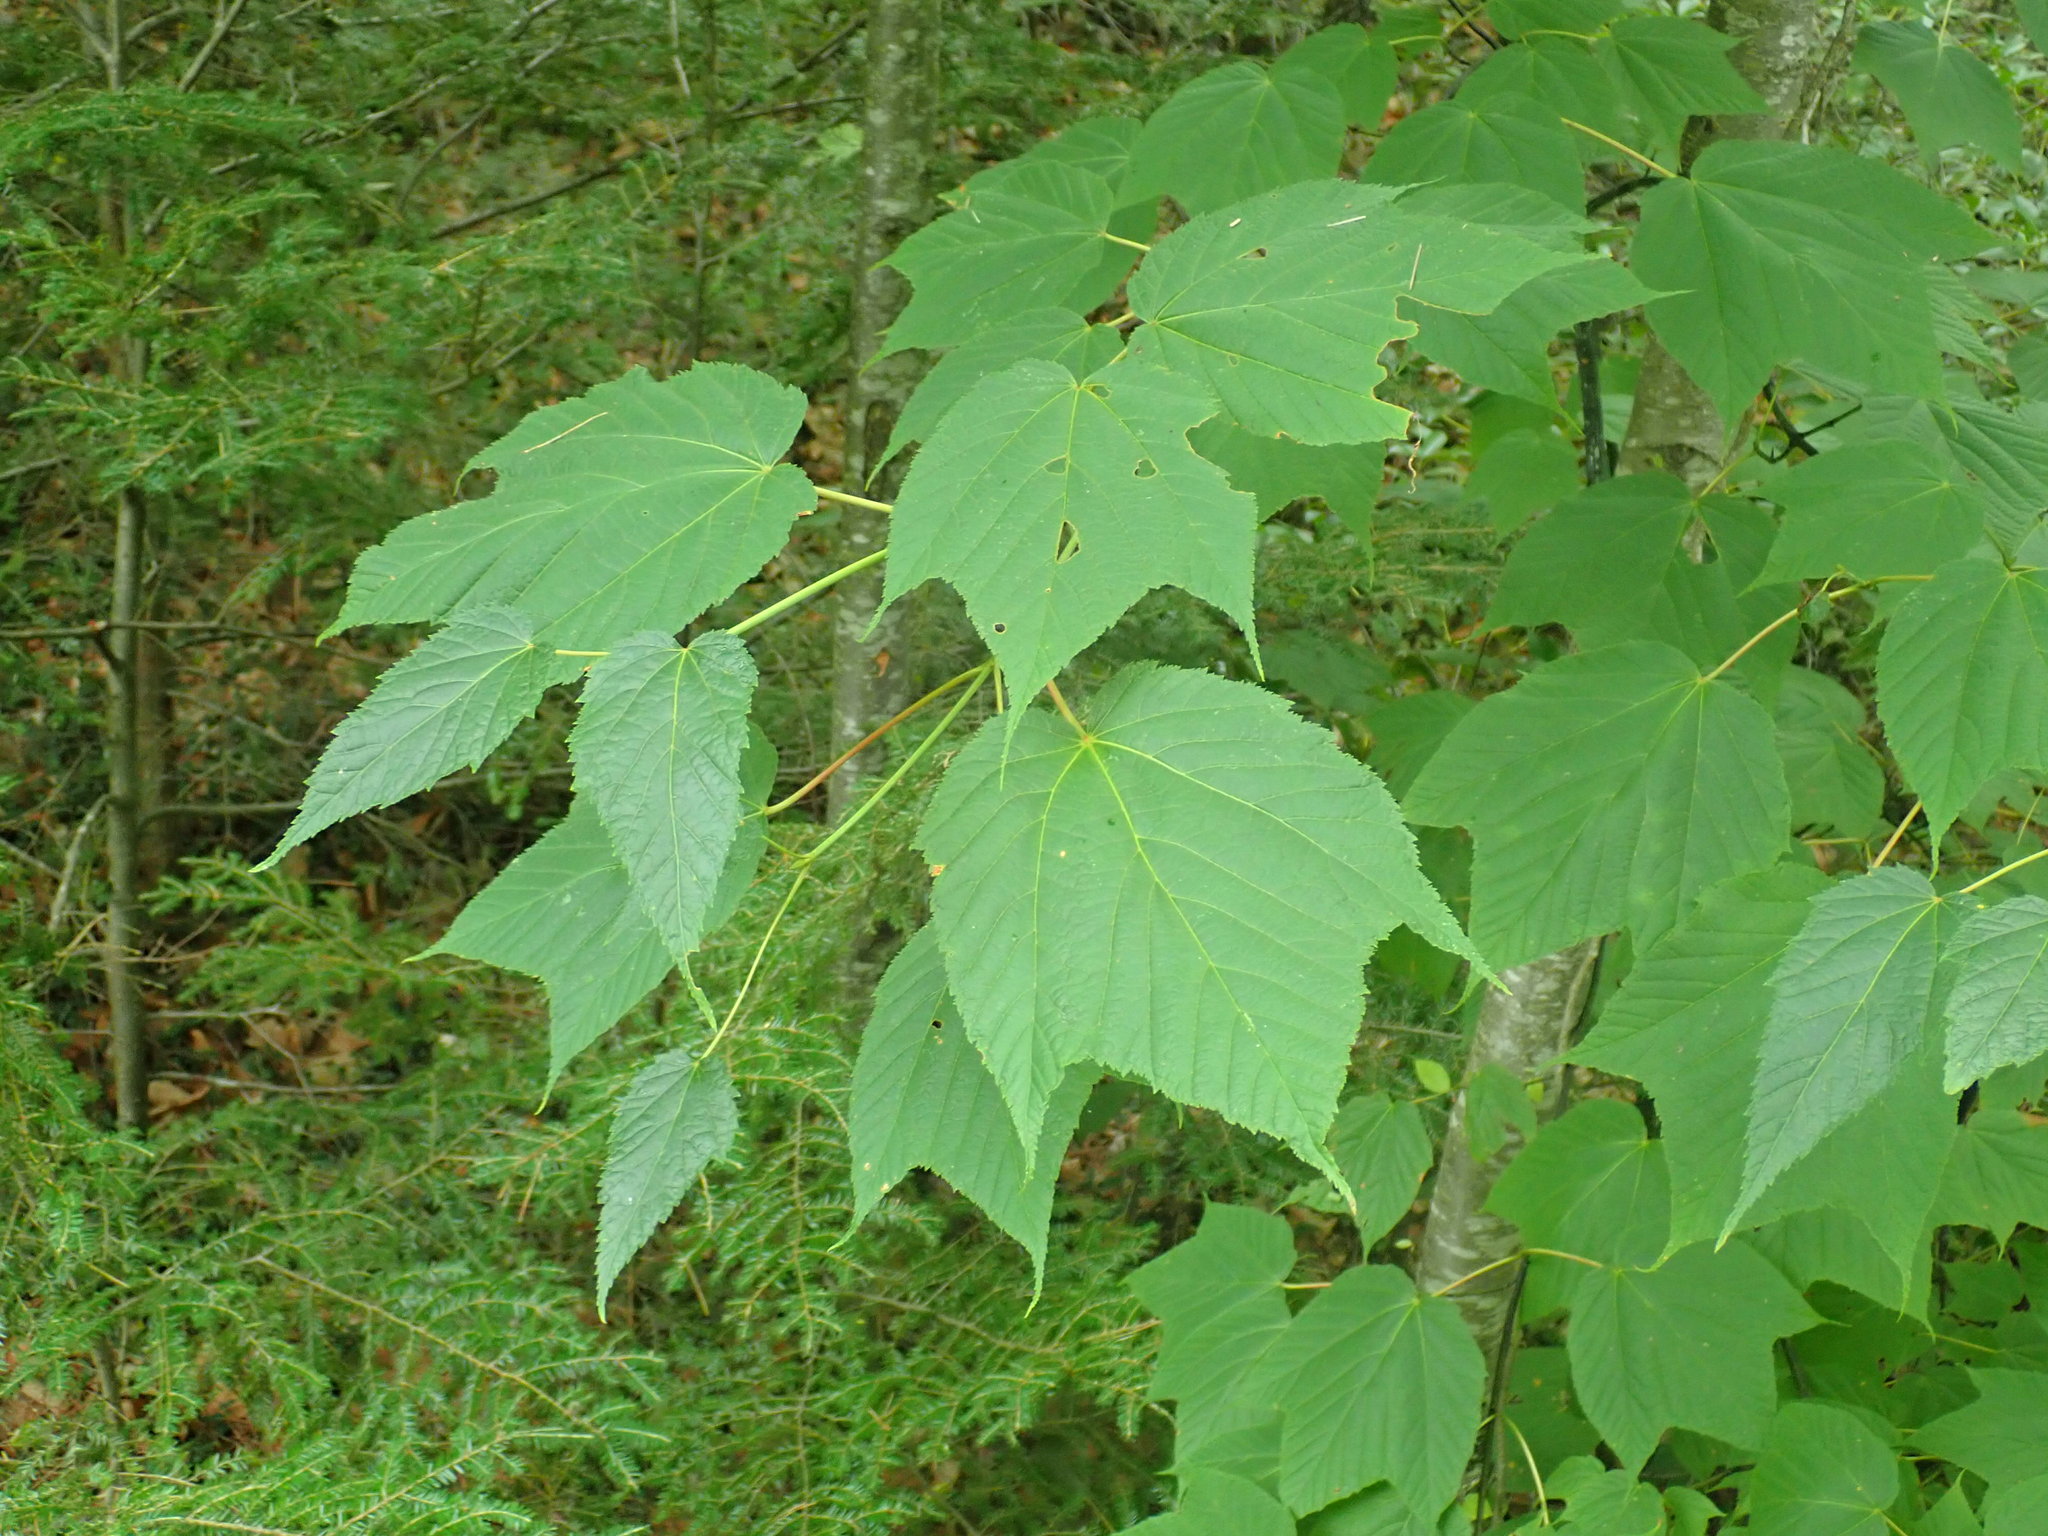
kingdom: Plantae
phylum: Tracheophyta
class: Magnoliopsida
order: Sapindales
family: Sapindaceae
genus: Acer
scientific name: Acer pensylvanicum
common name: Moosewood
